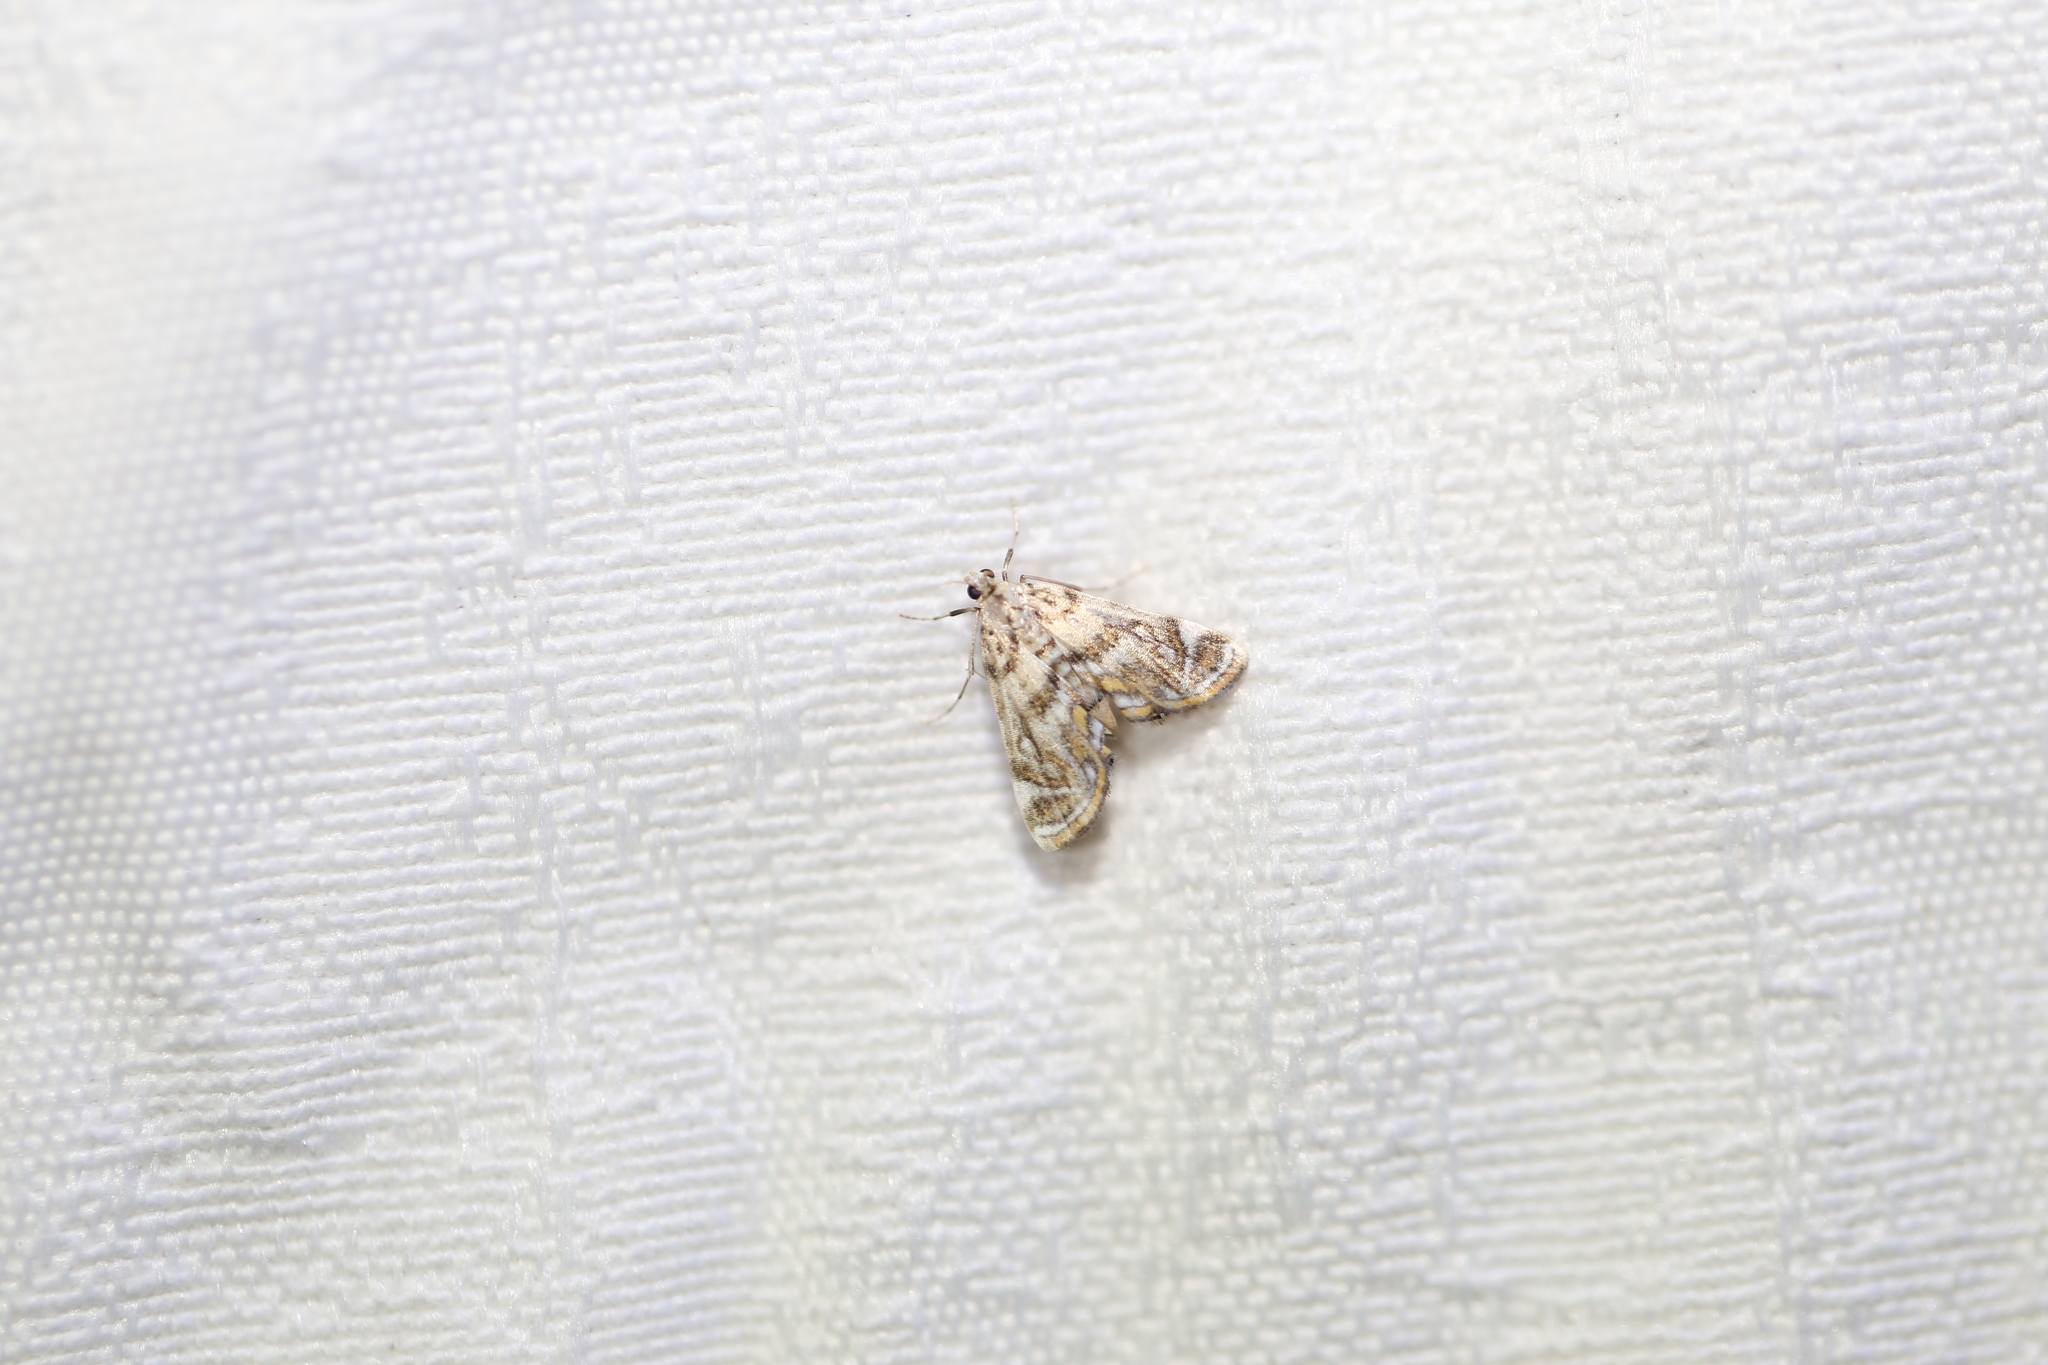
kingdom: Animalia
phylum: Arthropoda
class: Insecta
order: Lepidoptera
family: Crambidae
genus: Parapoynx
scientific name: Parapoynx polydectalis
